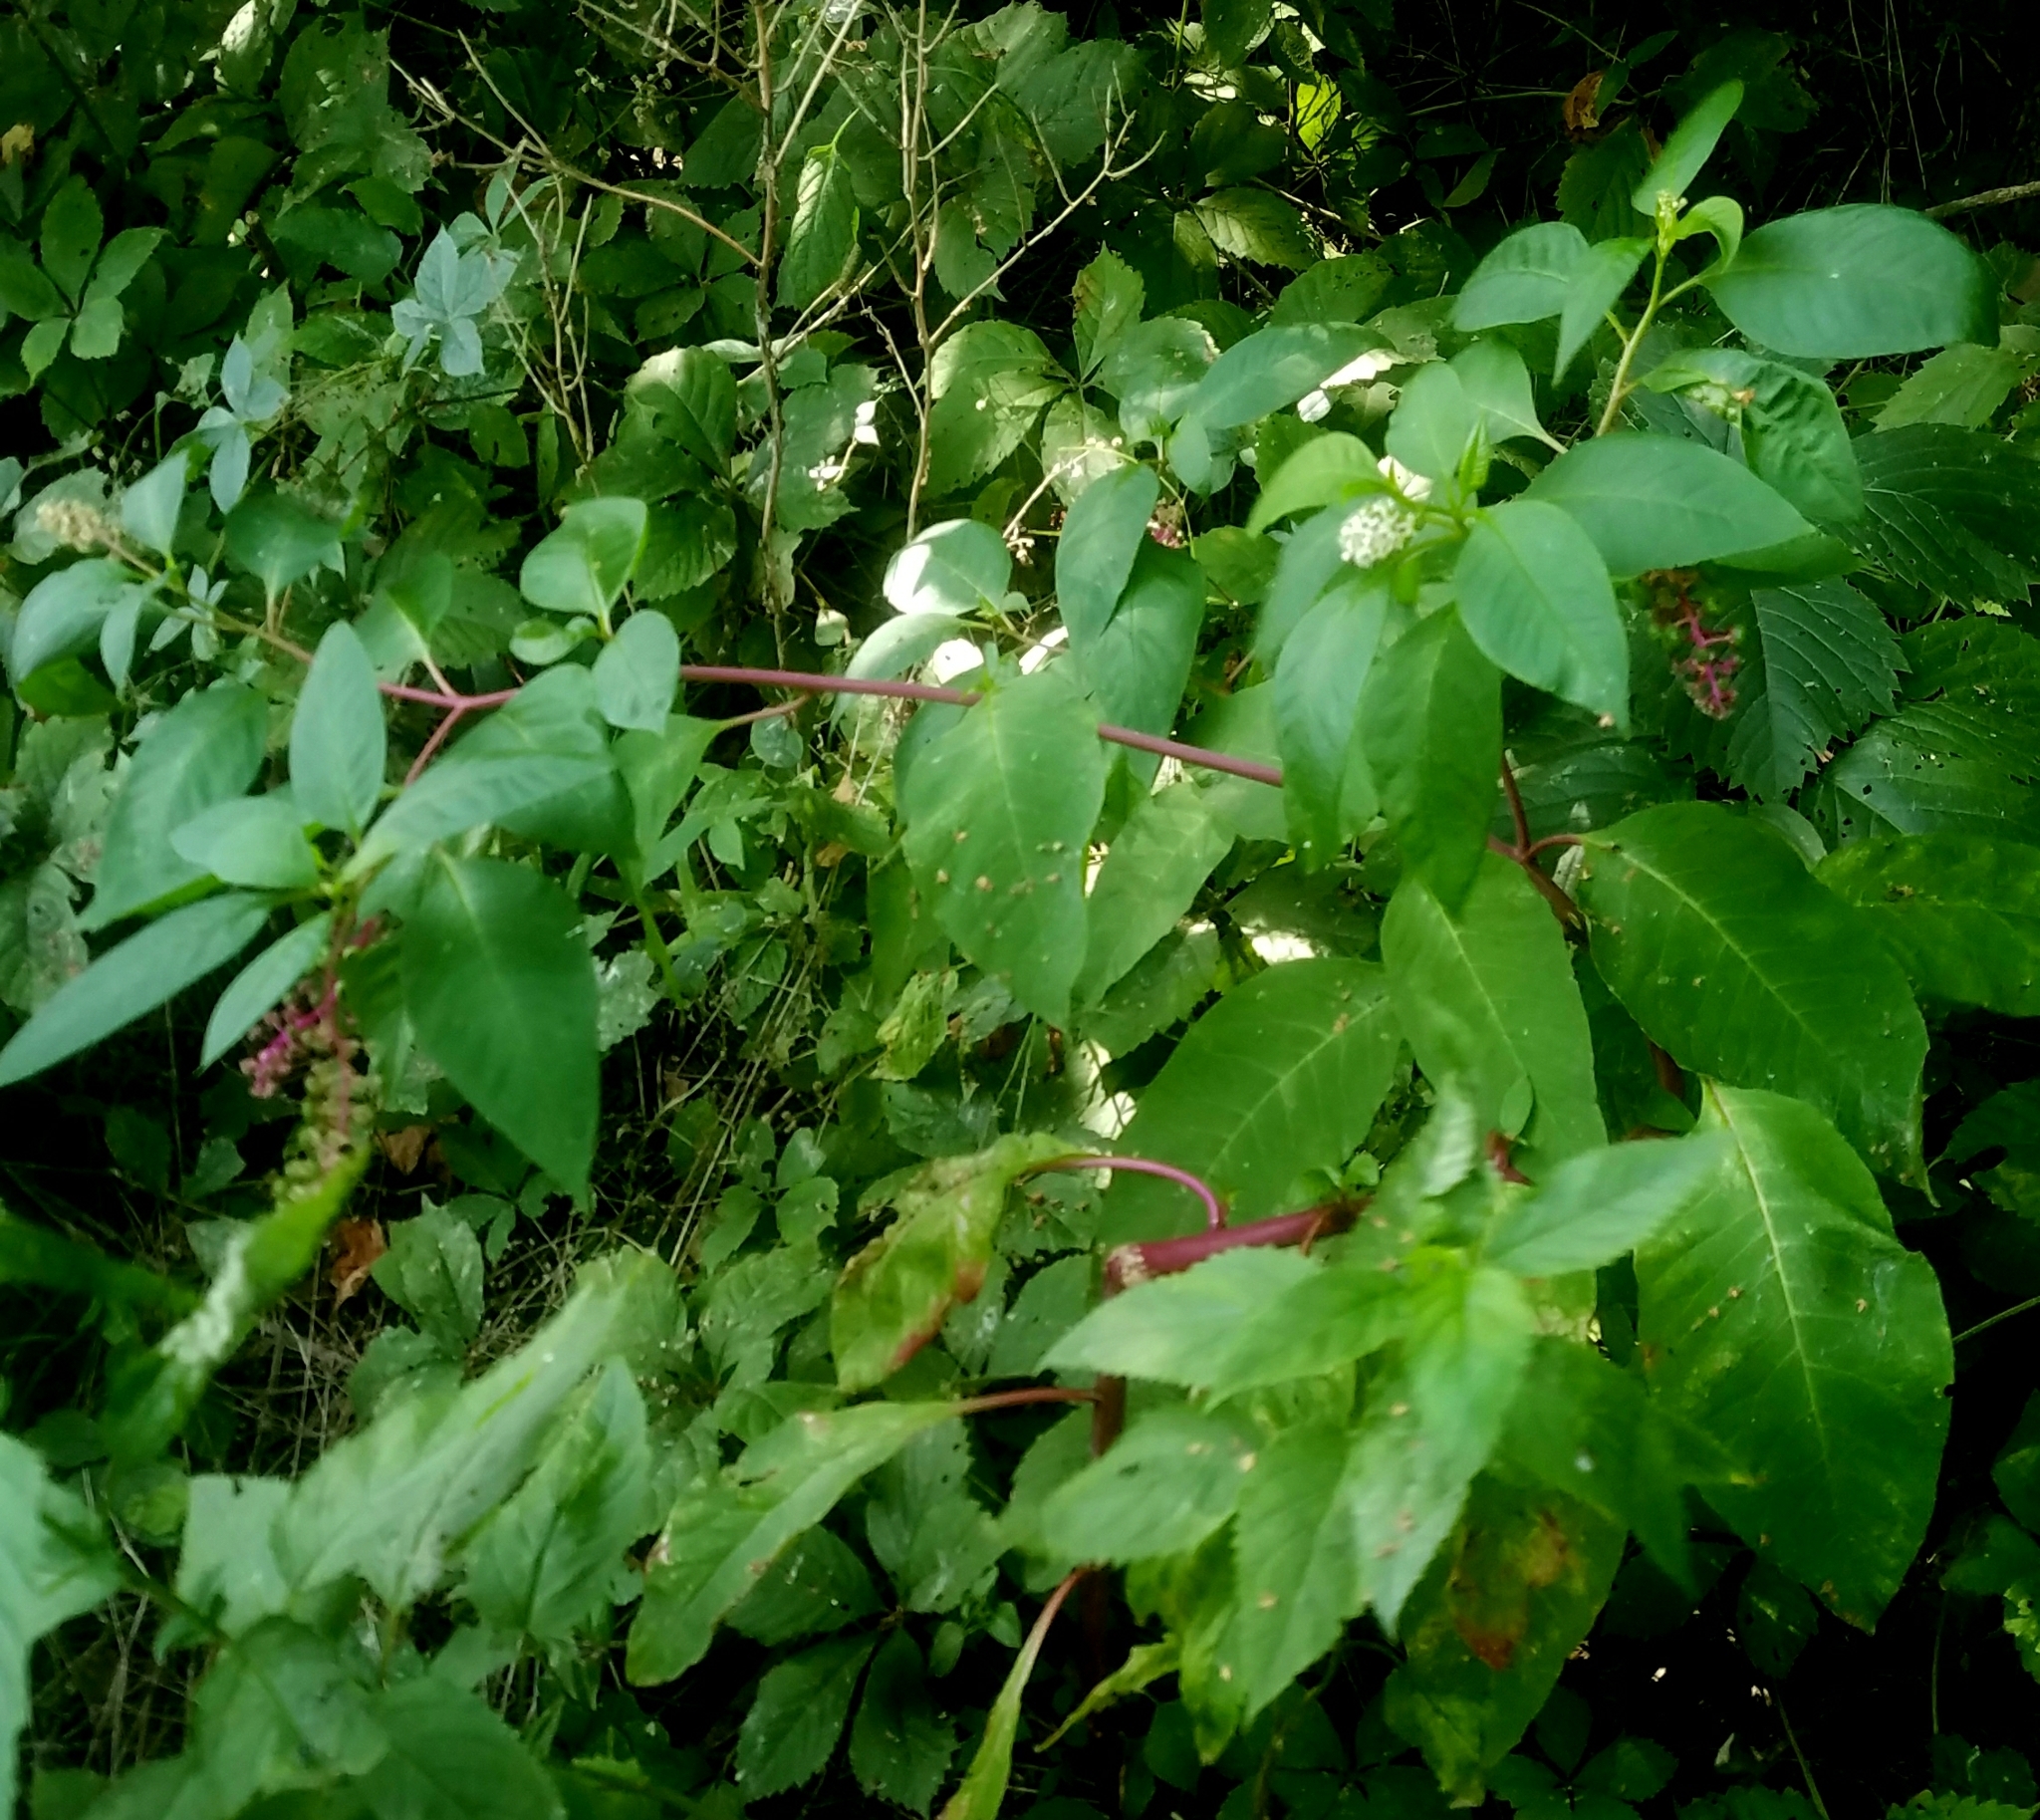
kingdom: Plantae
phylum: Tracheophyta
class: Magnoliopsida
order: Caryophyllales
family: Phytolaccaceae
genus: Phytolacca
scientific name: Phytolacca americana
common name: American pokeweed
